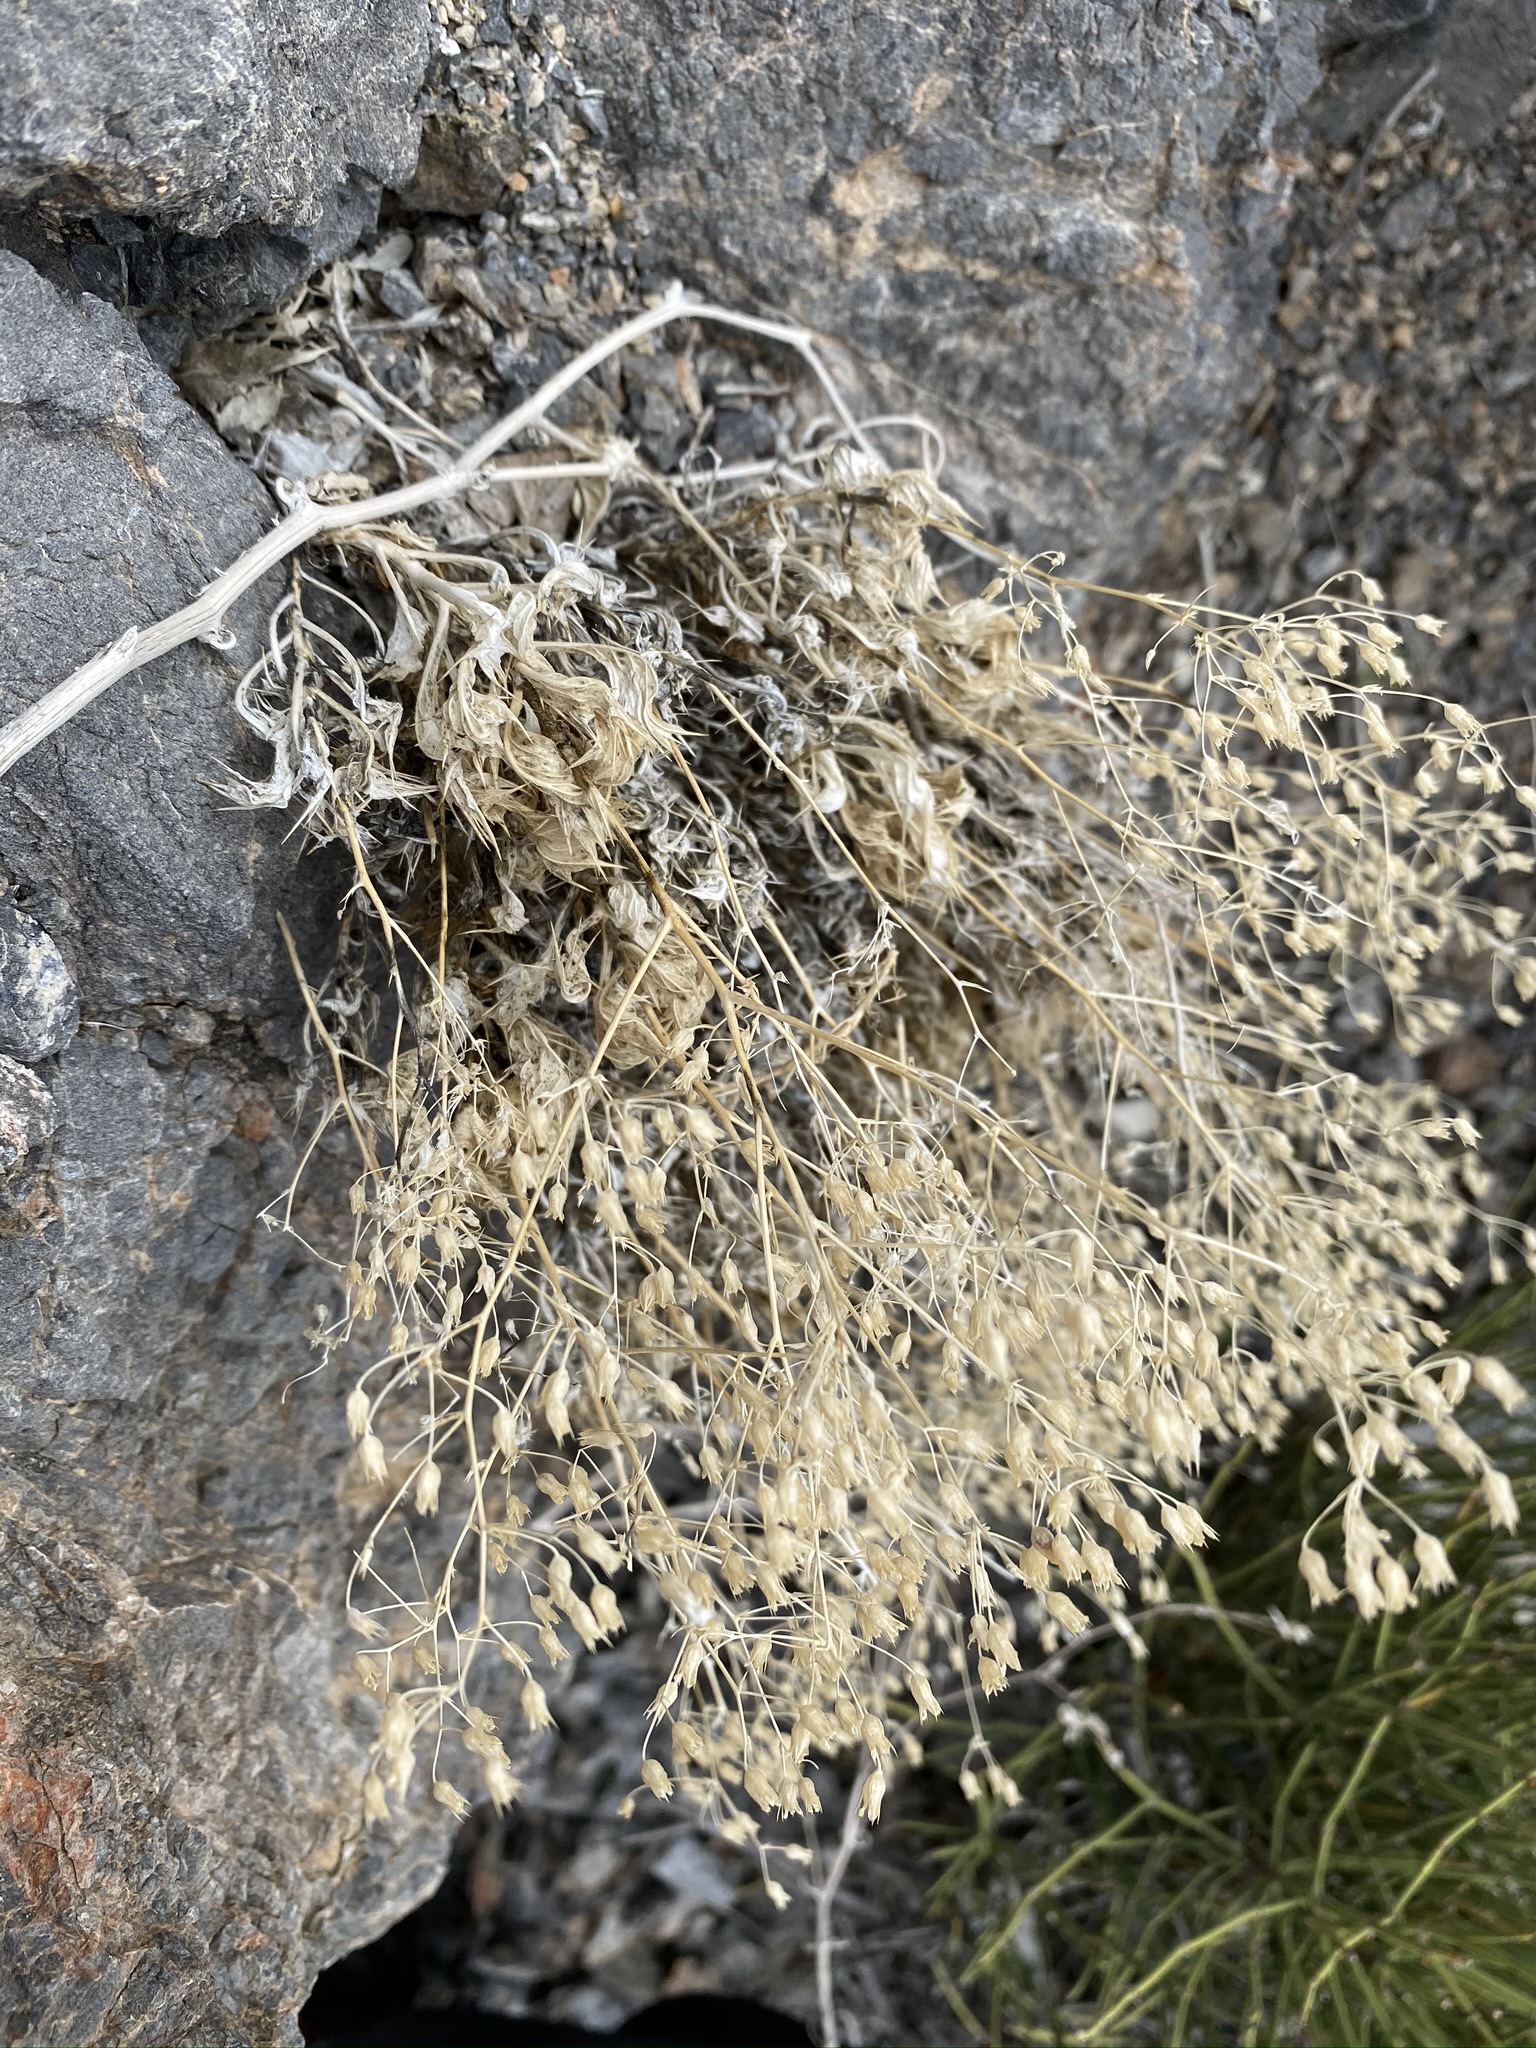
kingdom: Plantae
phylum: Tracheophyta
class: Magnoliopsida
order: Ericales
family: Polemoniaceae
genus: Aliciella
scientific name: Aliciella ripleyi
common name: Ripley's gilia
